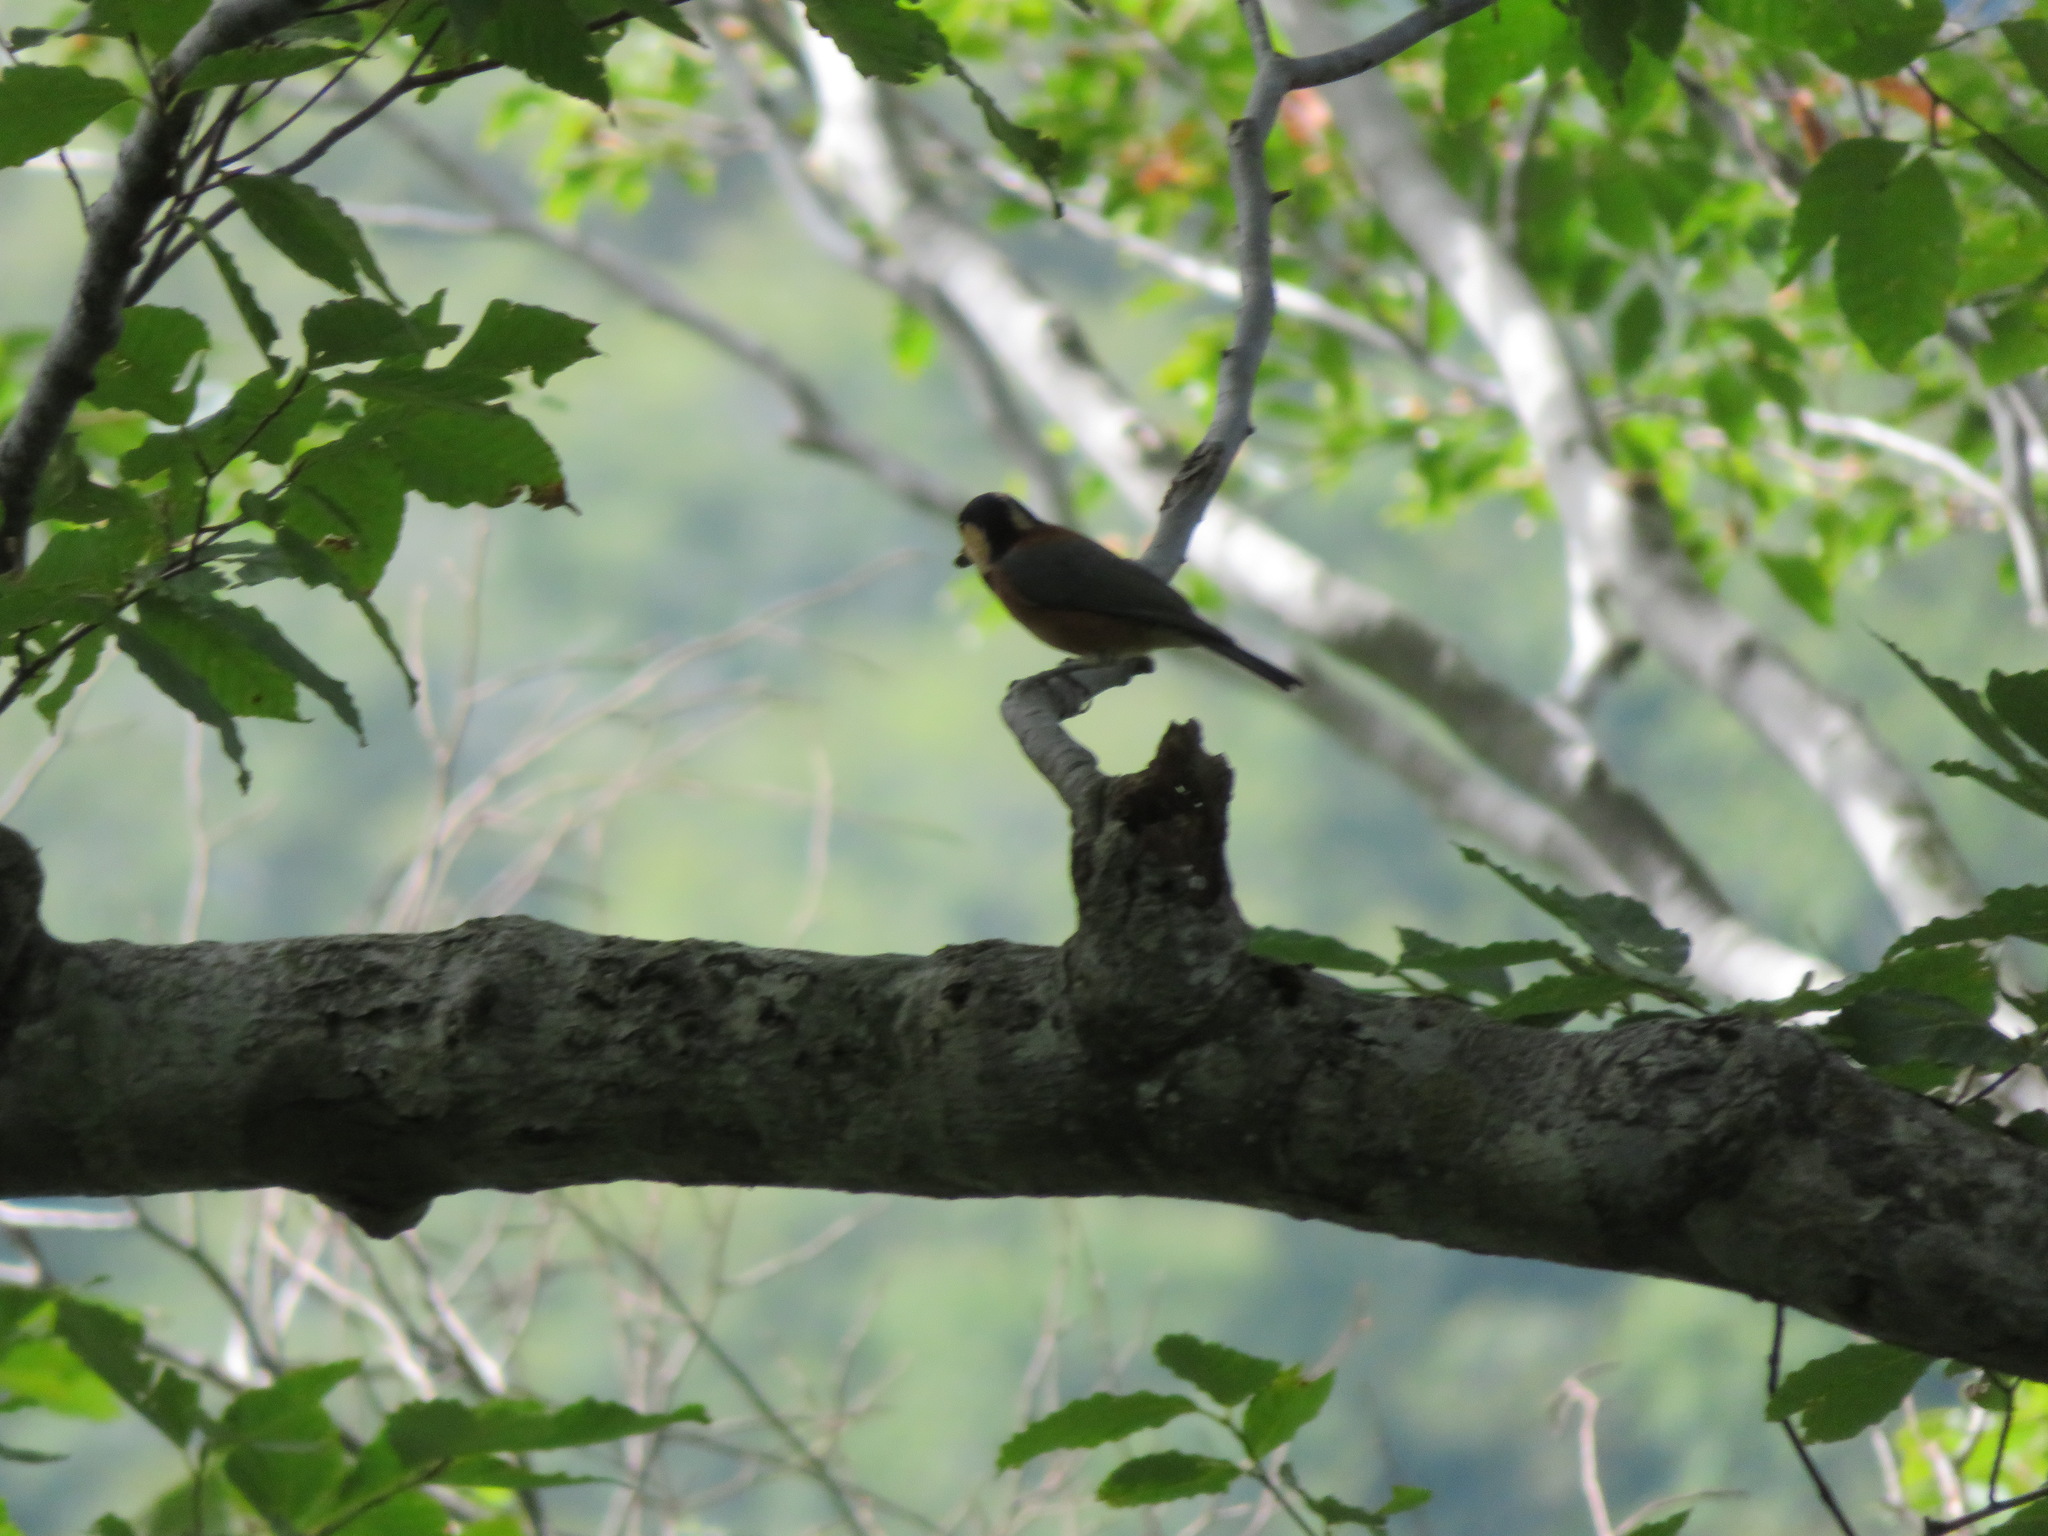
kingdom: Animalia
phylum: Chordata
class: Aves
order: Passeriformes
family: Paridae
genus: Poecile
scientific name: Poecile varius
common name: Varied tit
